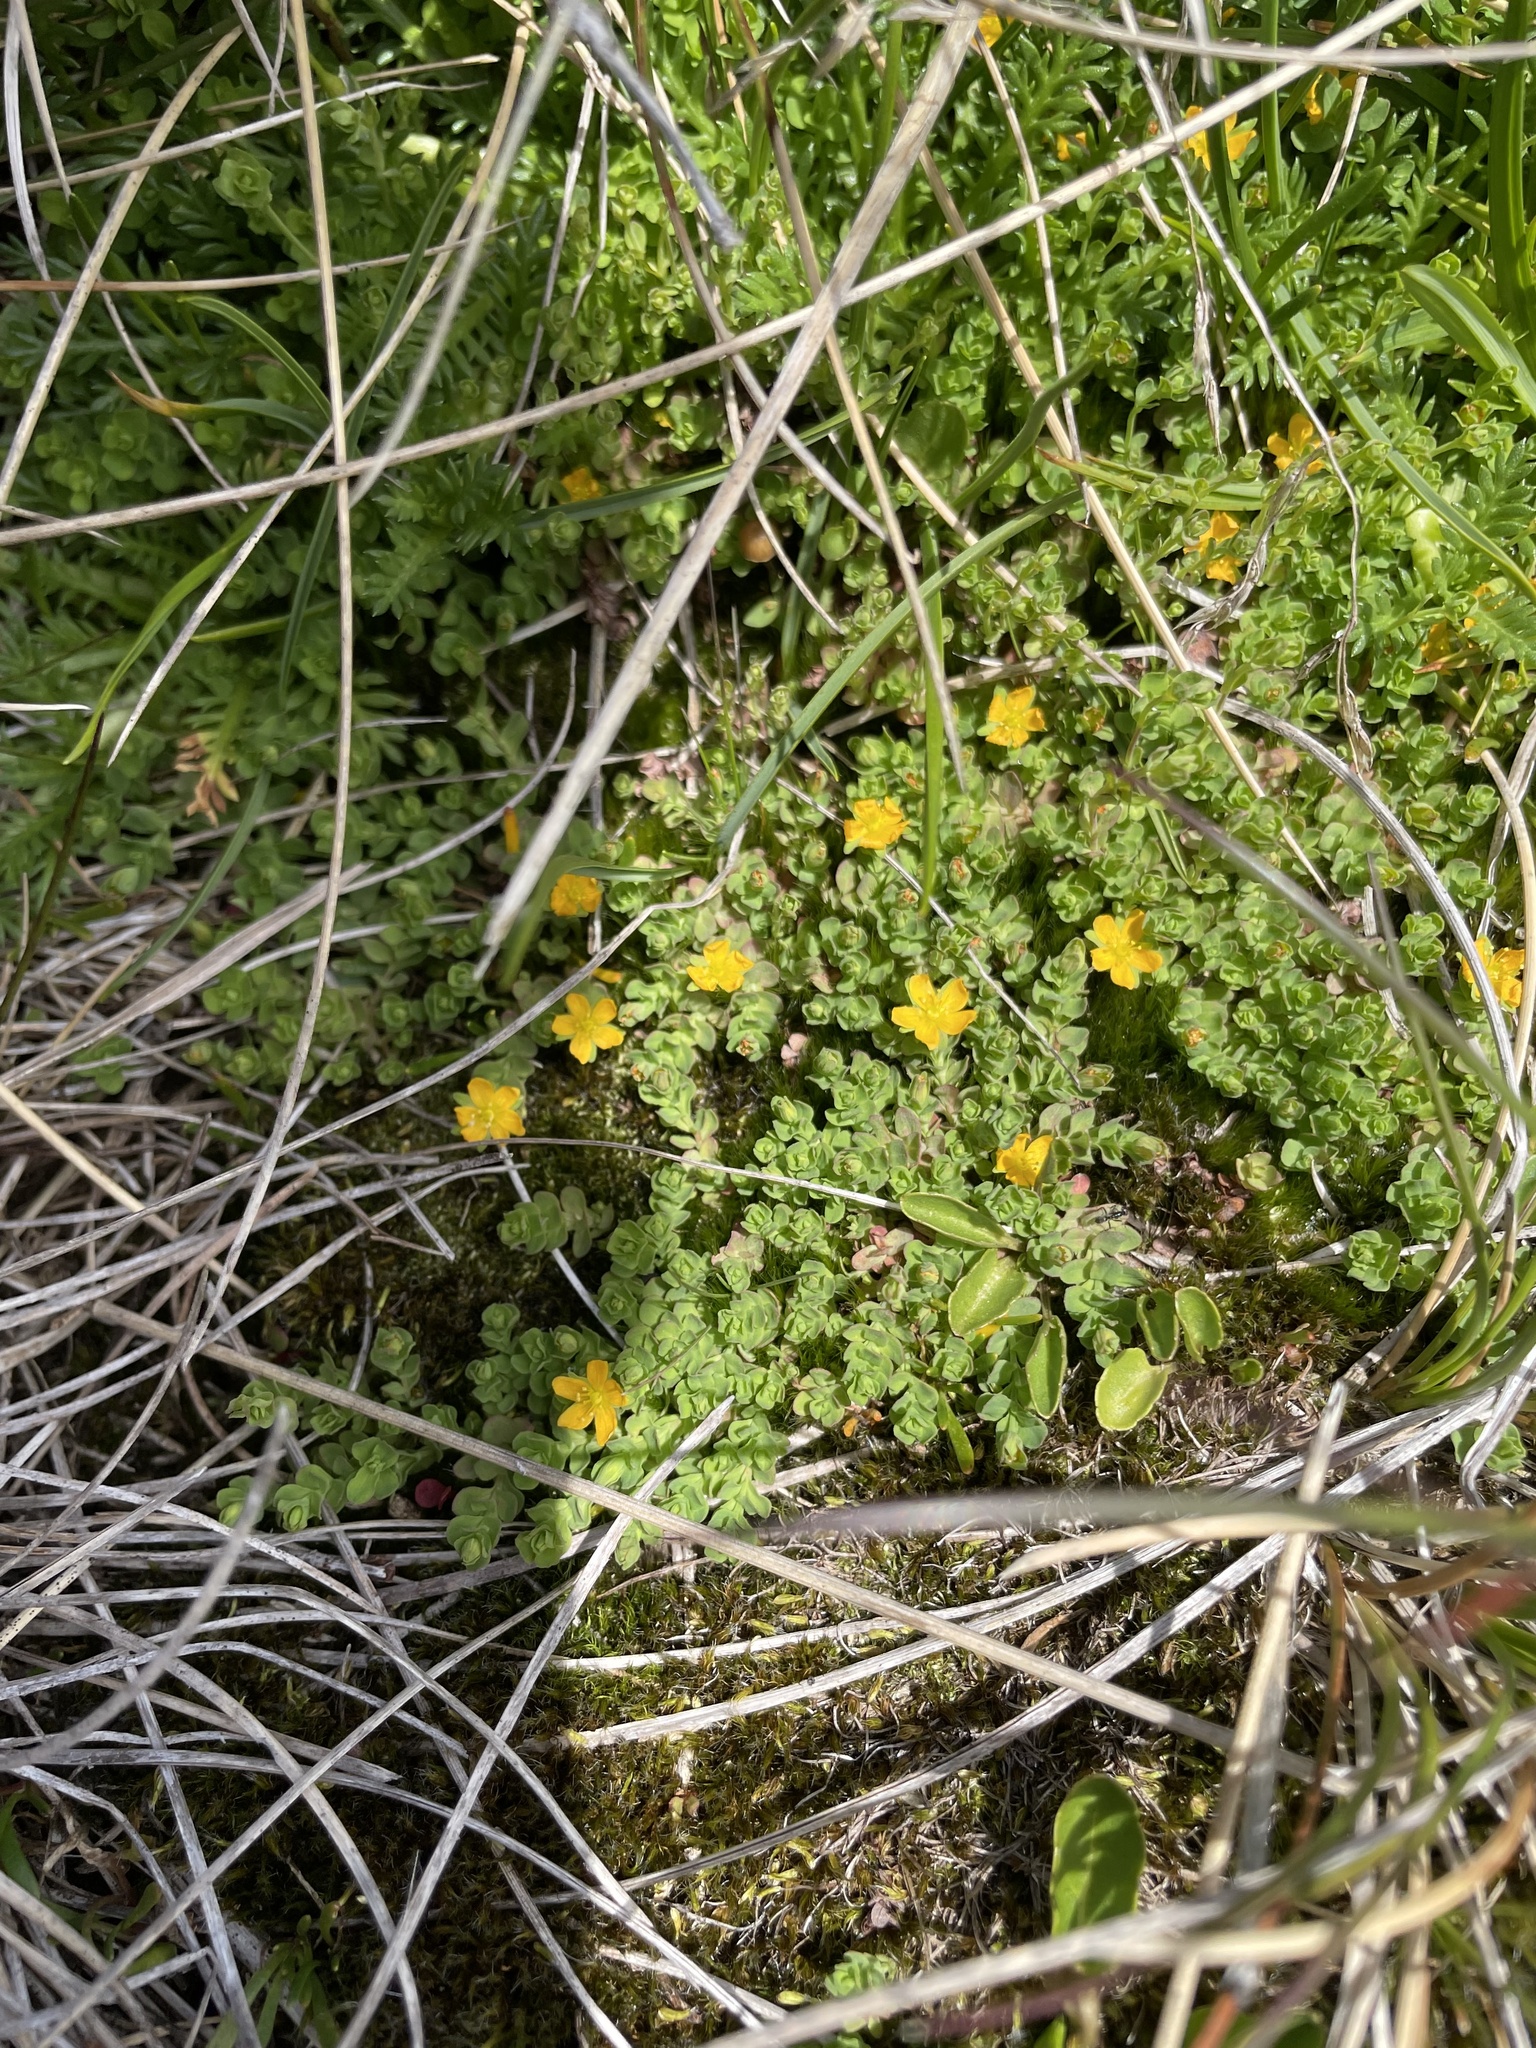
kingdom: Plantae
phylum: Tracheophyta
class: Magnoliopsida
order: Malpighiales
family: Hypericaceae
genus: Hypericum
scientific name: Hypericum japonicum
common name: Matted st. john's-wort
